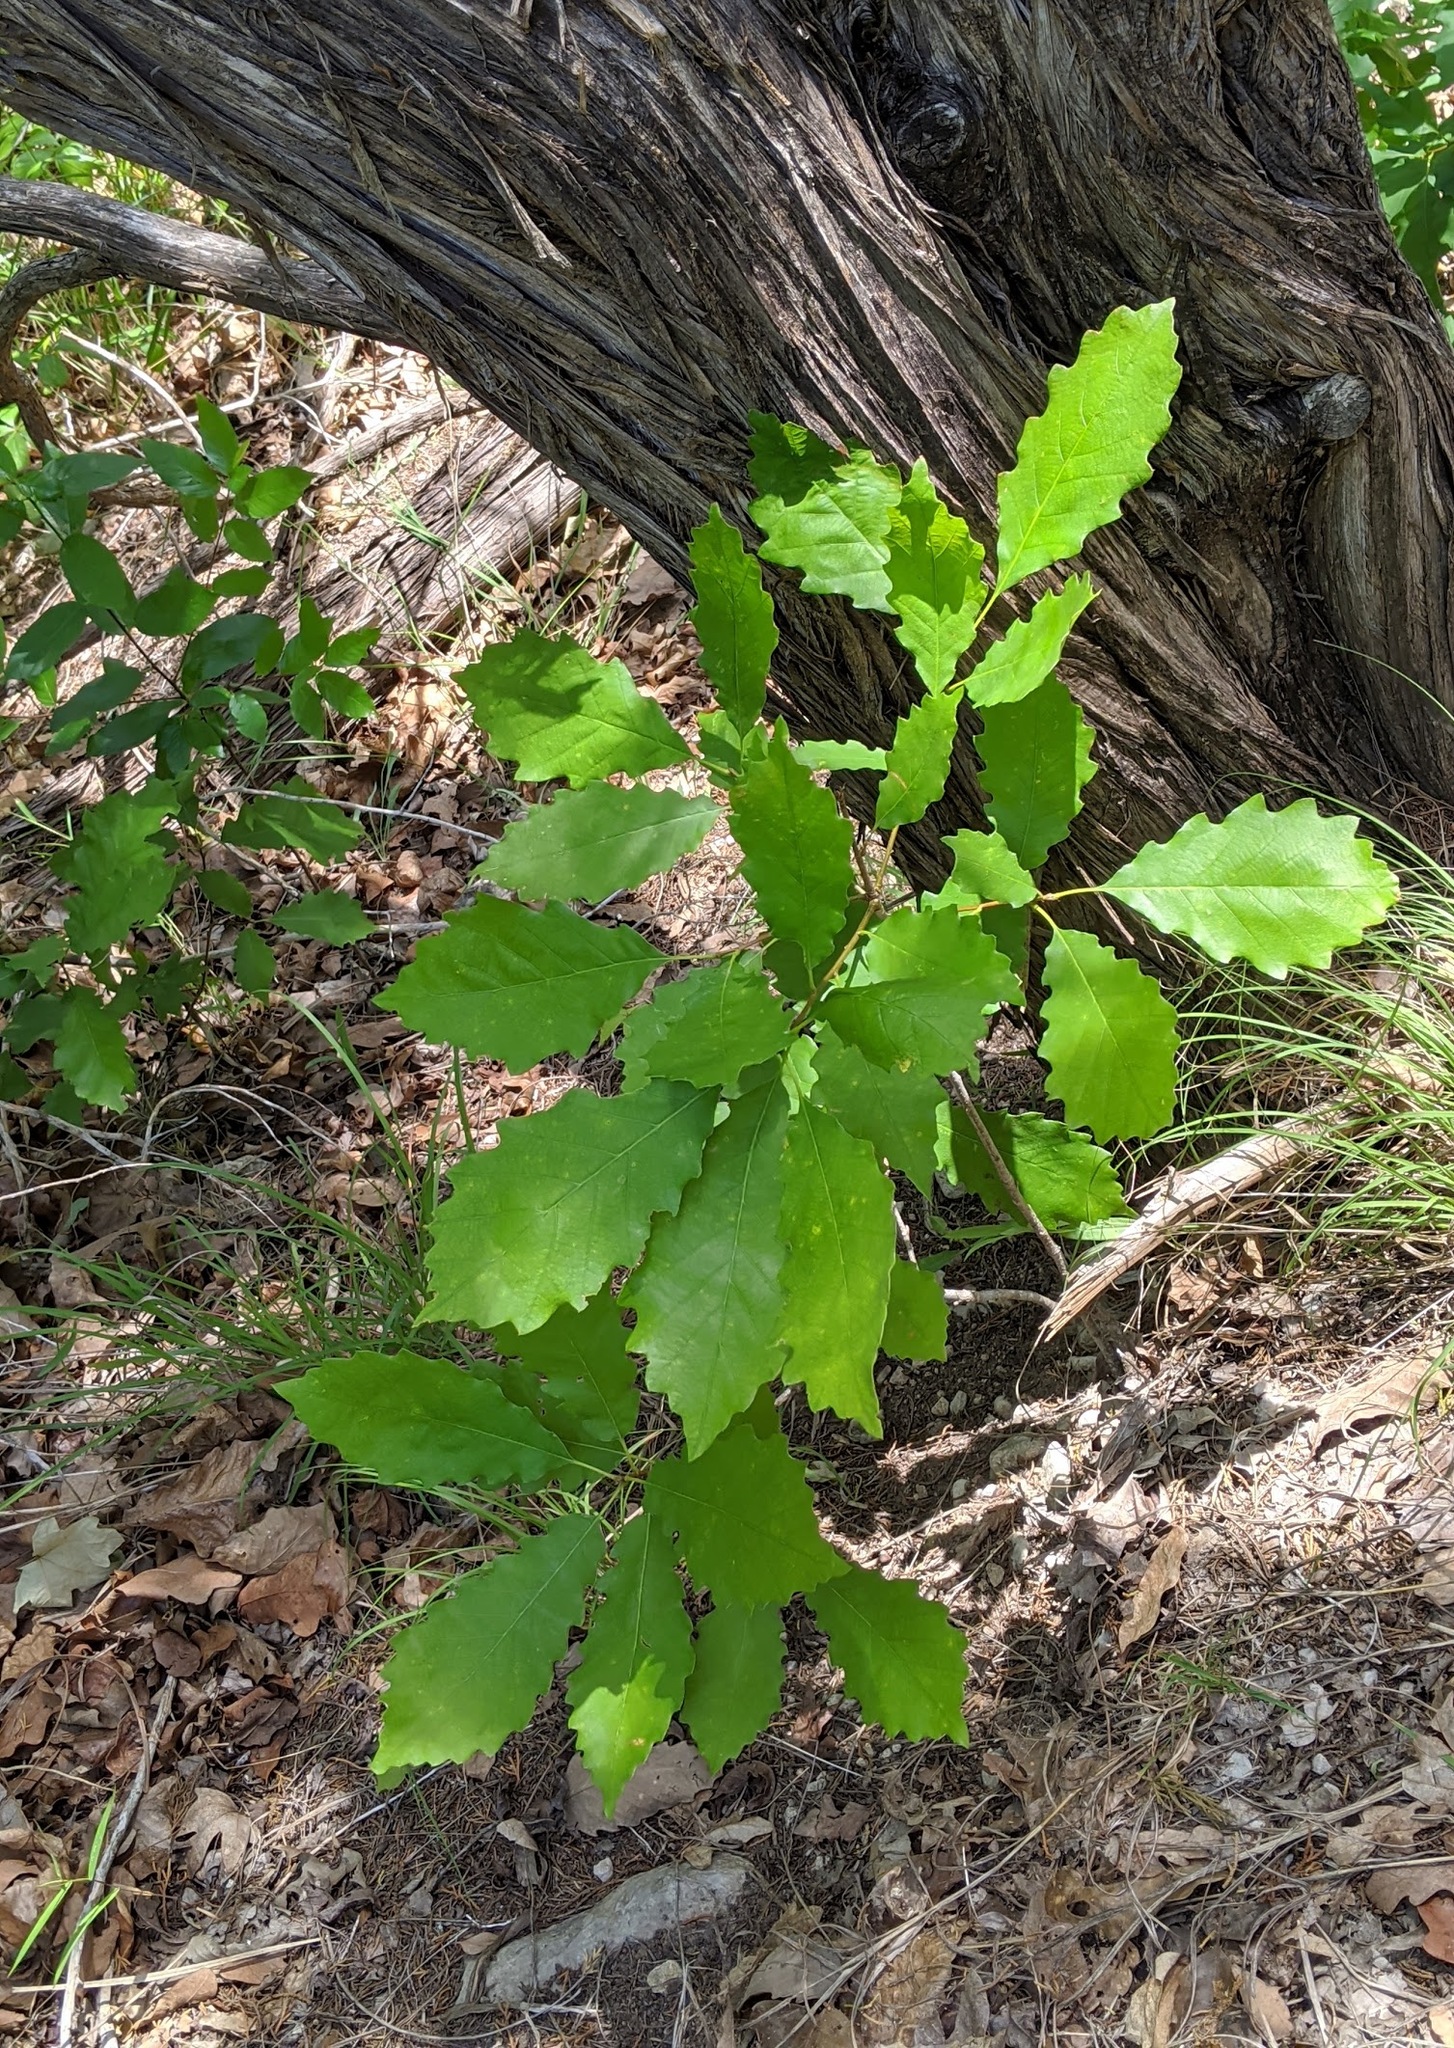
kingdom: Plantae
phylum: Tracheophyta
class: Magnoliopsida
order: Fagales
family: Fagaceae
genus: Quercus
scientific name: Quercus muehlenbergii
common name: Chinkapin oak
